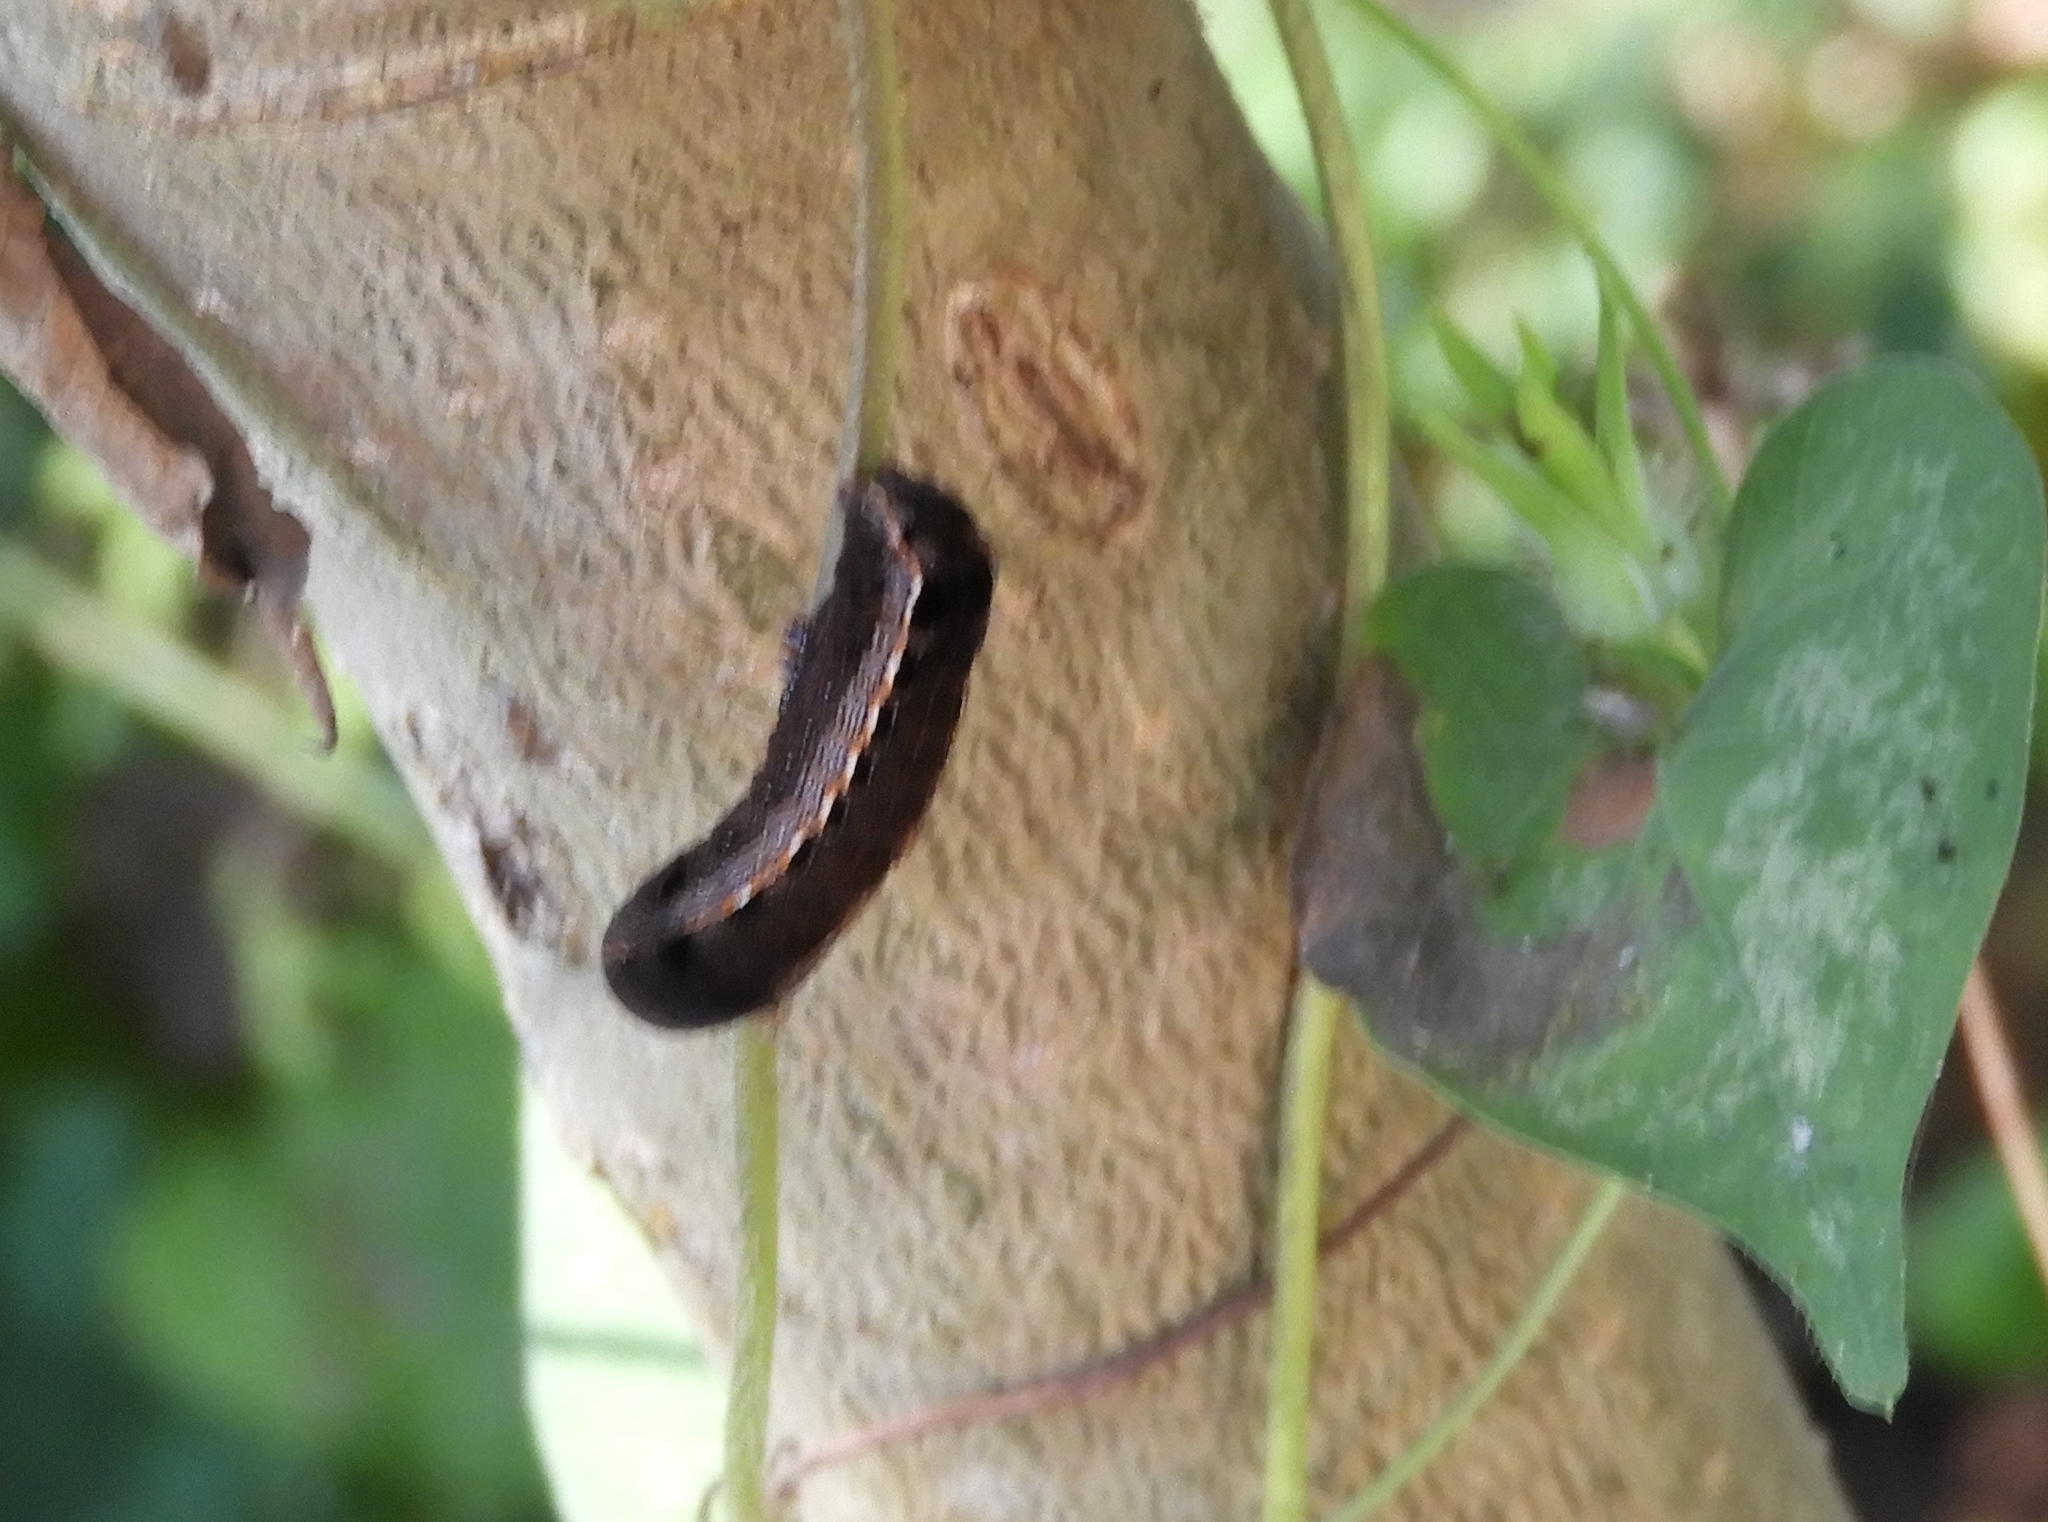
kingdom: Animalia
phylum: Arthropoda
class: Insecta
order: Lepidoptera
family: Noctuidae
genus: Spodoptera
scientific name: Spodoptera ornithogalli
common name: Yellow-striped armyworm
